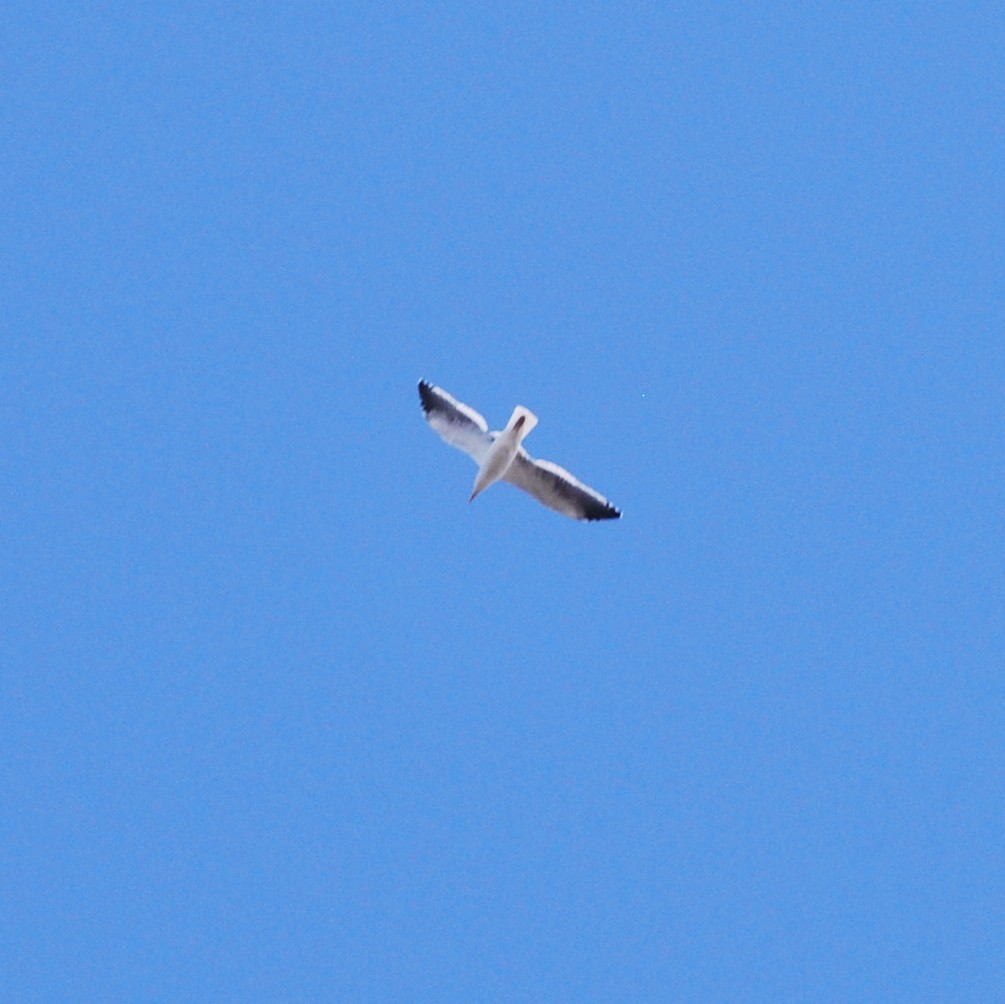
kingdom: Animalia
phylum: Chordata
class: Aves
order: Charadriiformes
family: Laridae
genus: Larus
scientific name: Larus occidentalis
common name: Western gull
